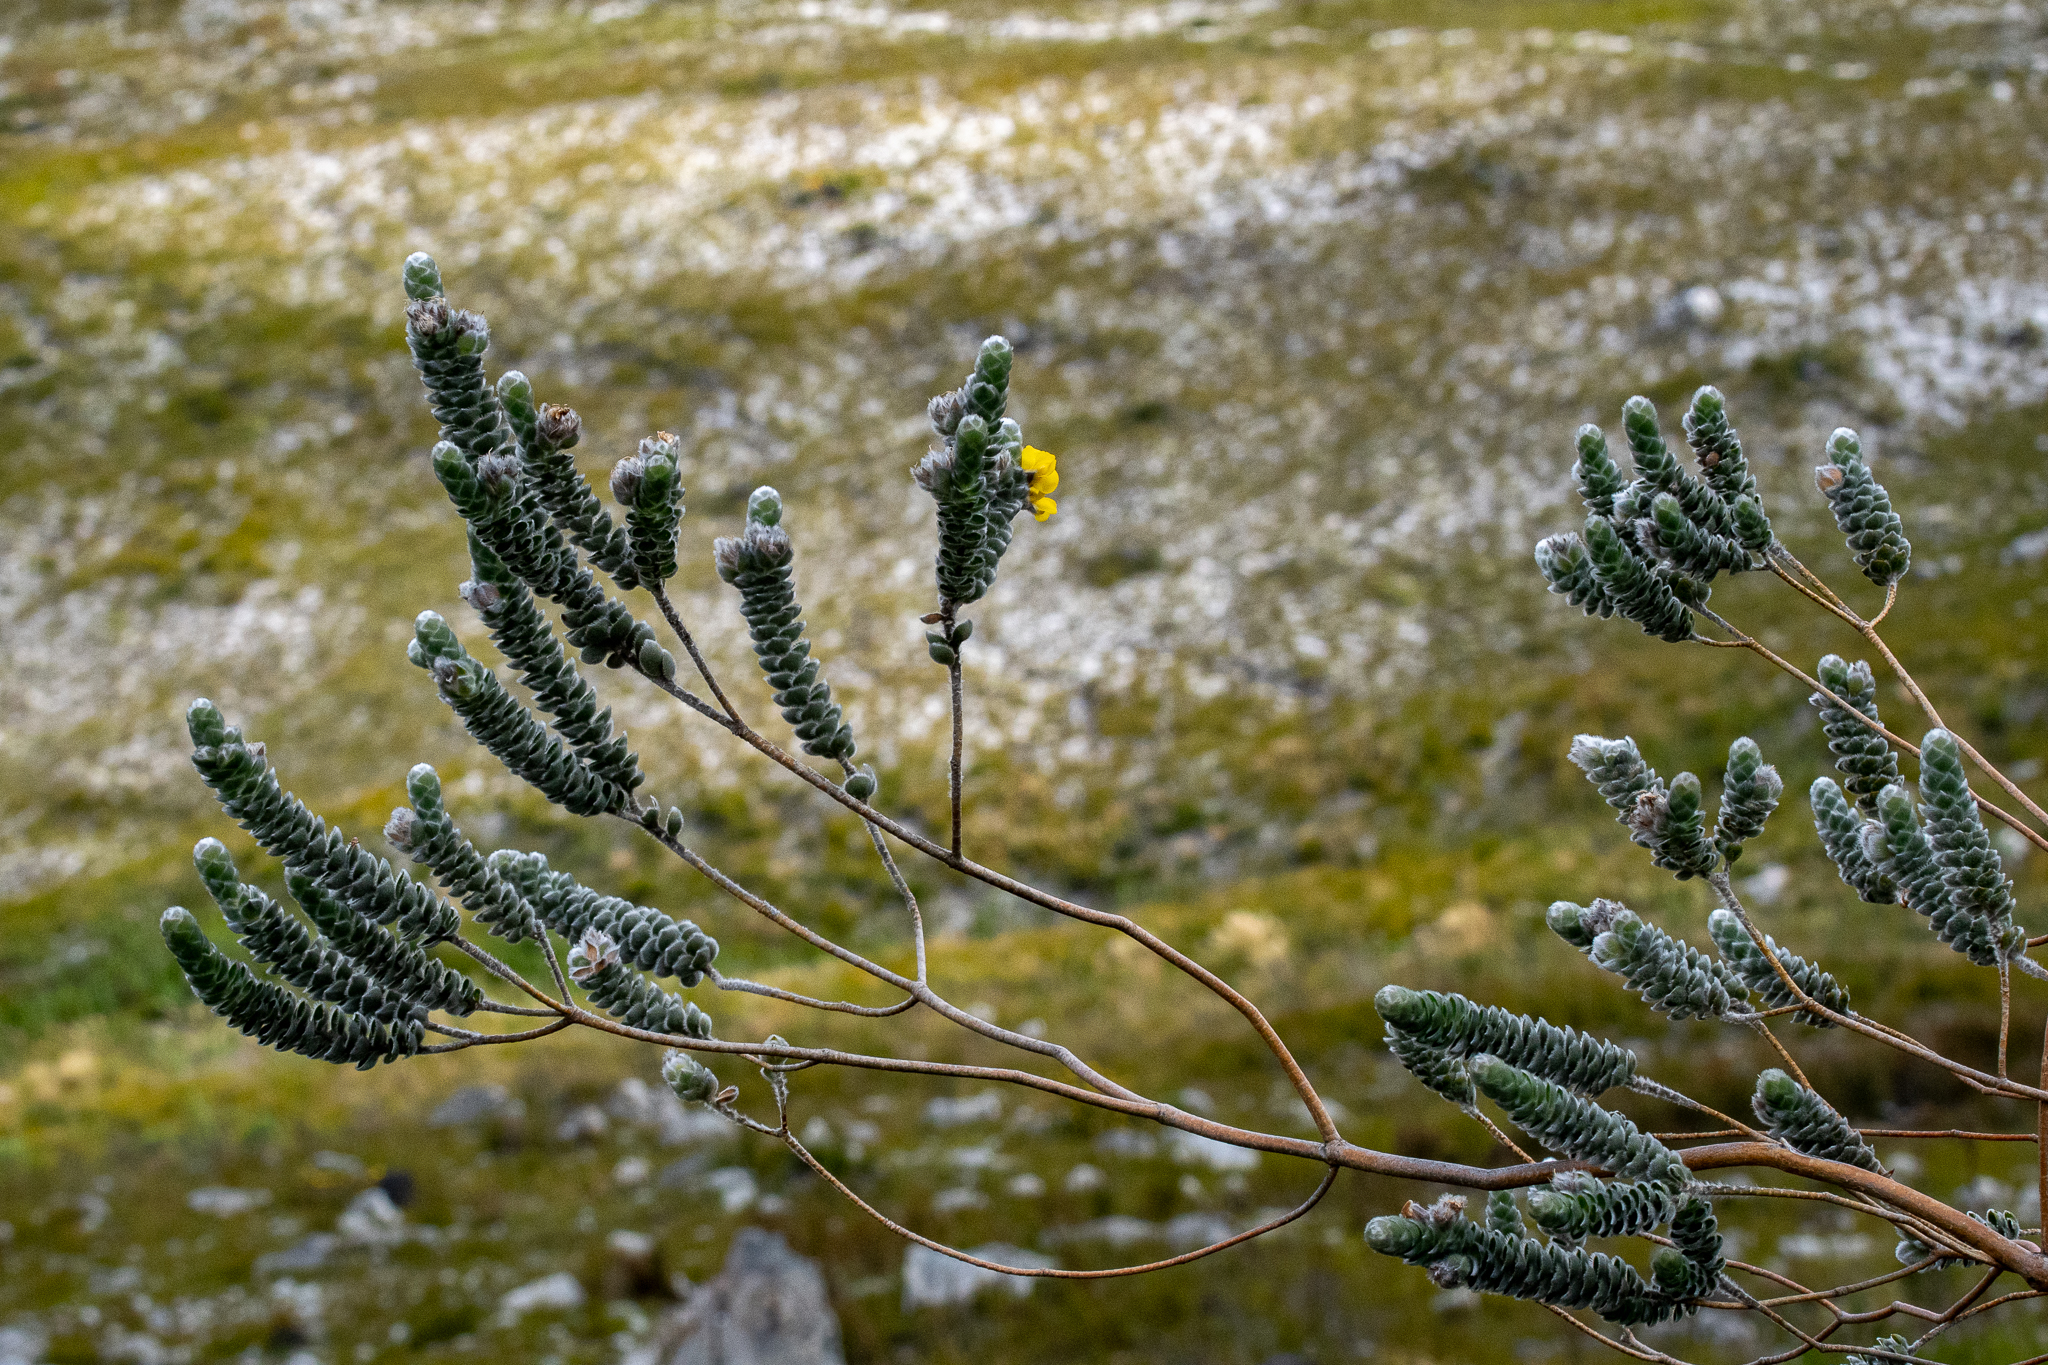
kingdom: Plantae
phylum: Tracheophyta
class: Magnoliopsida
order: Fabales
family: Fabaceae
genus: Liparia
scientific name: Liparia vestita
